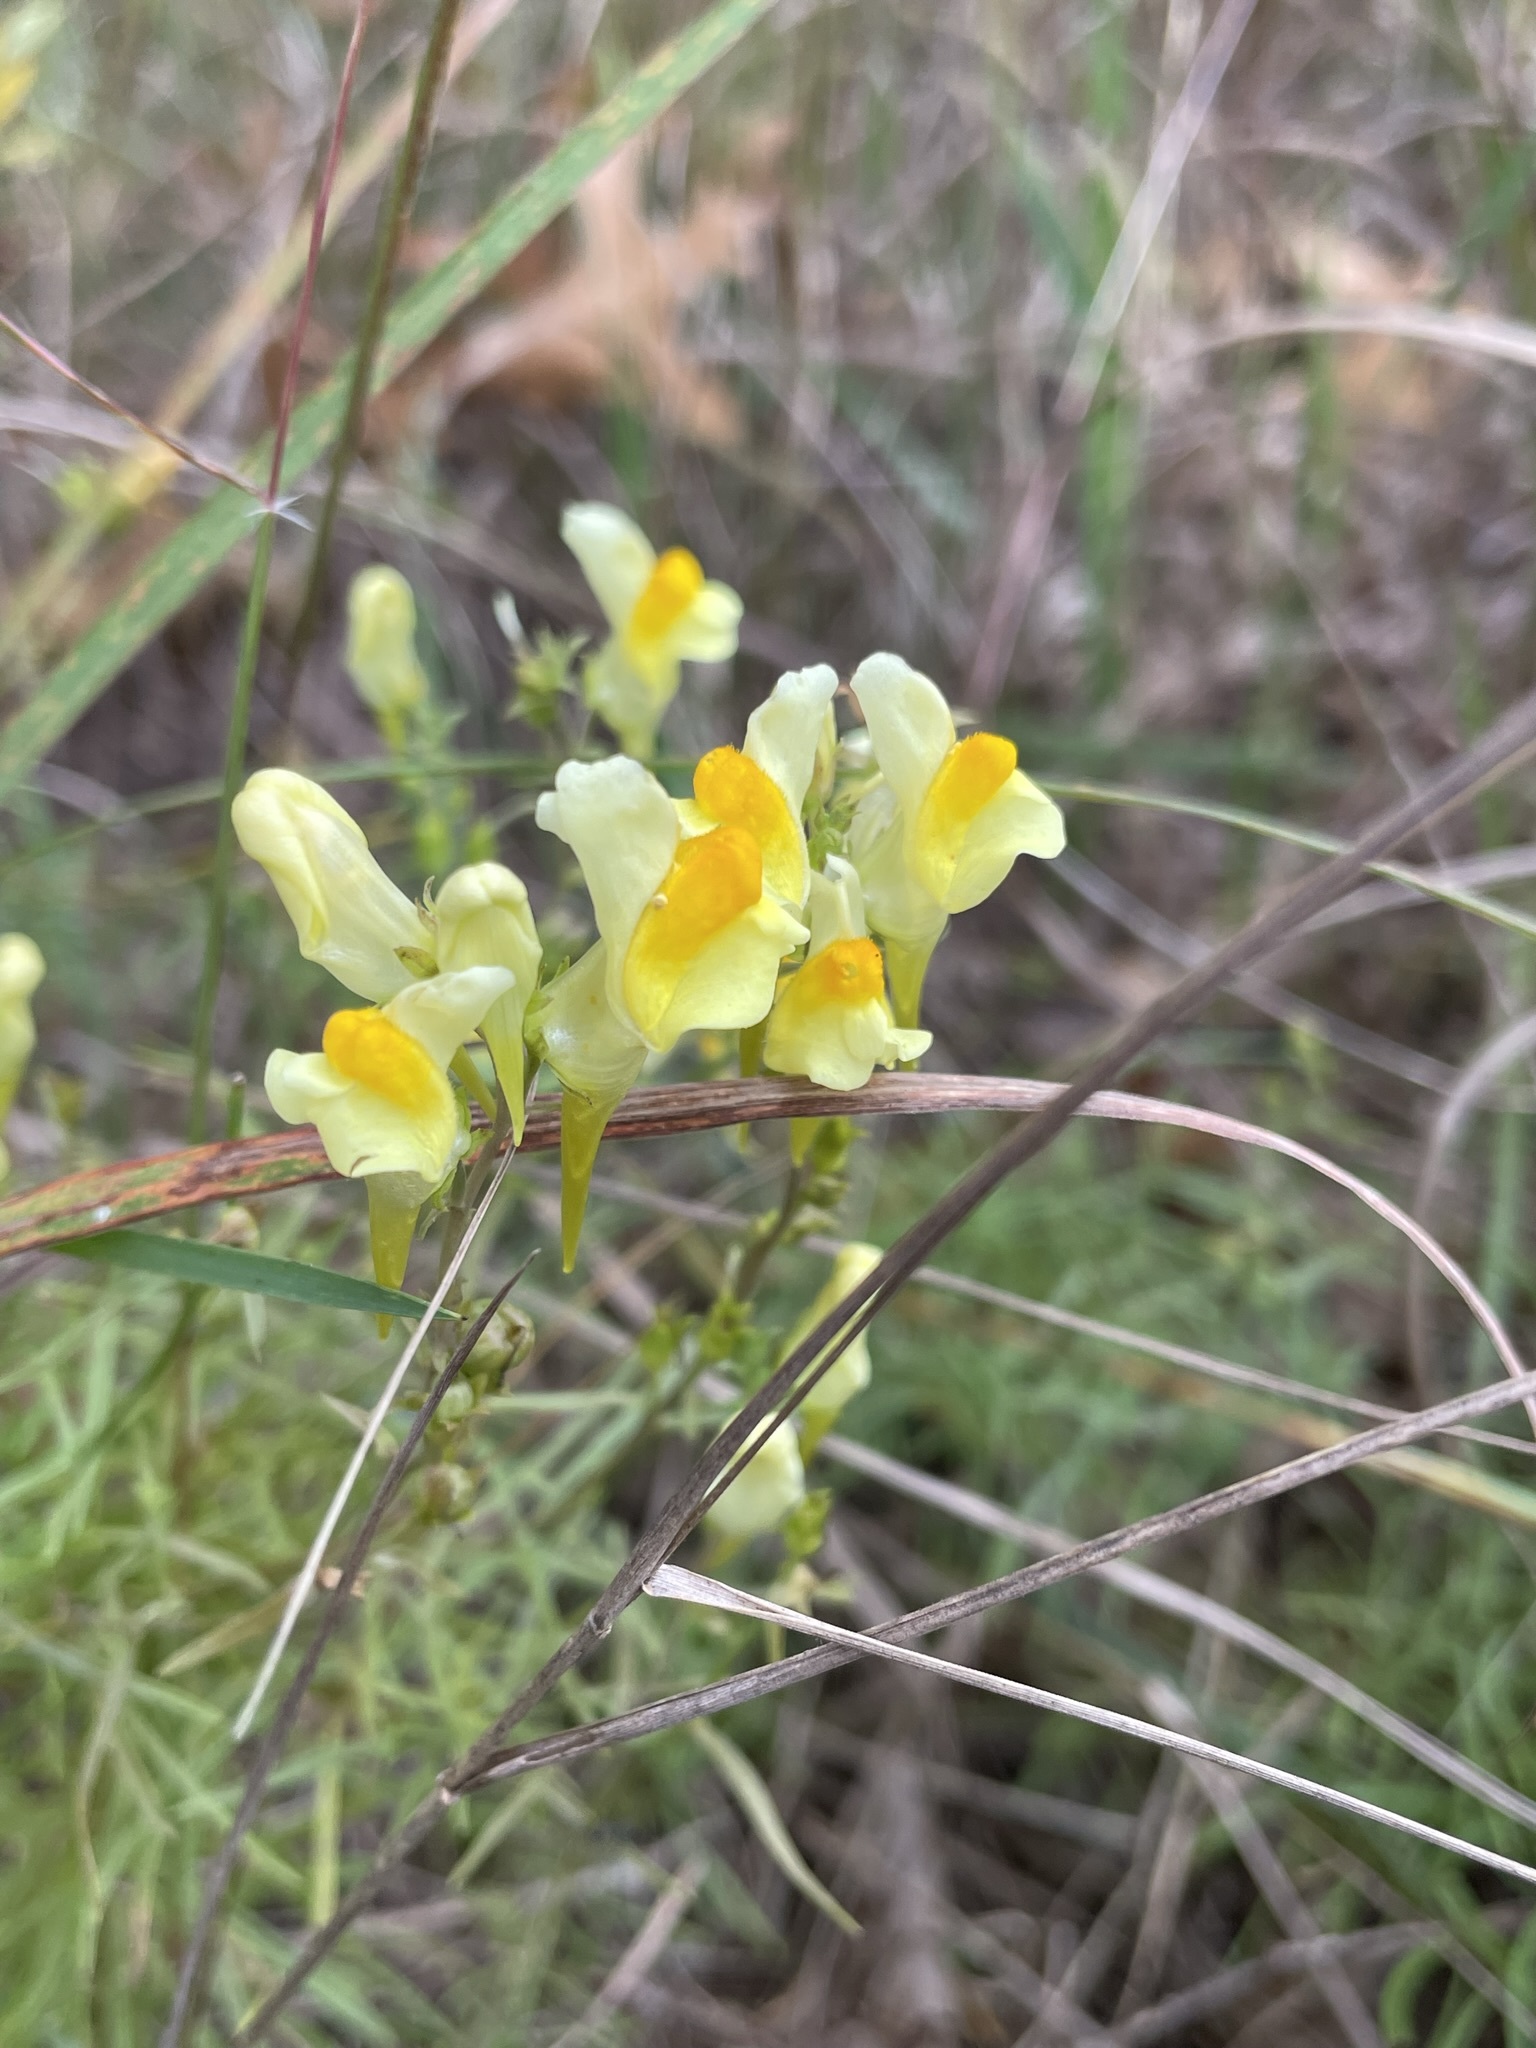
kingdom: Plantae
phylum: Tracheophyta
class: Magnoliopsida
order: Lamiales
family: Plantaginaceae
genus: Linaria
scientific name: Linaria vulgaris
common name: Butter and eggs
